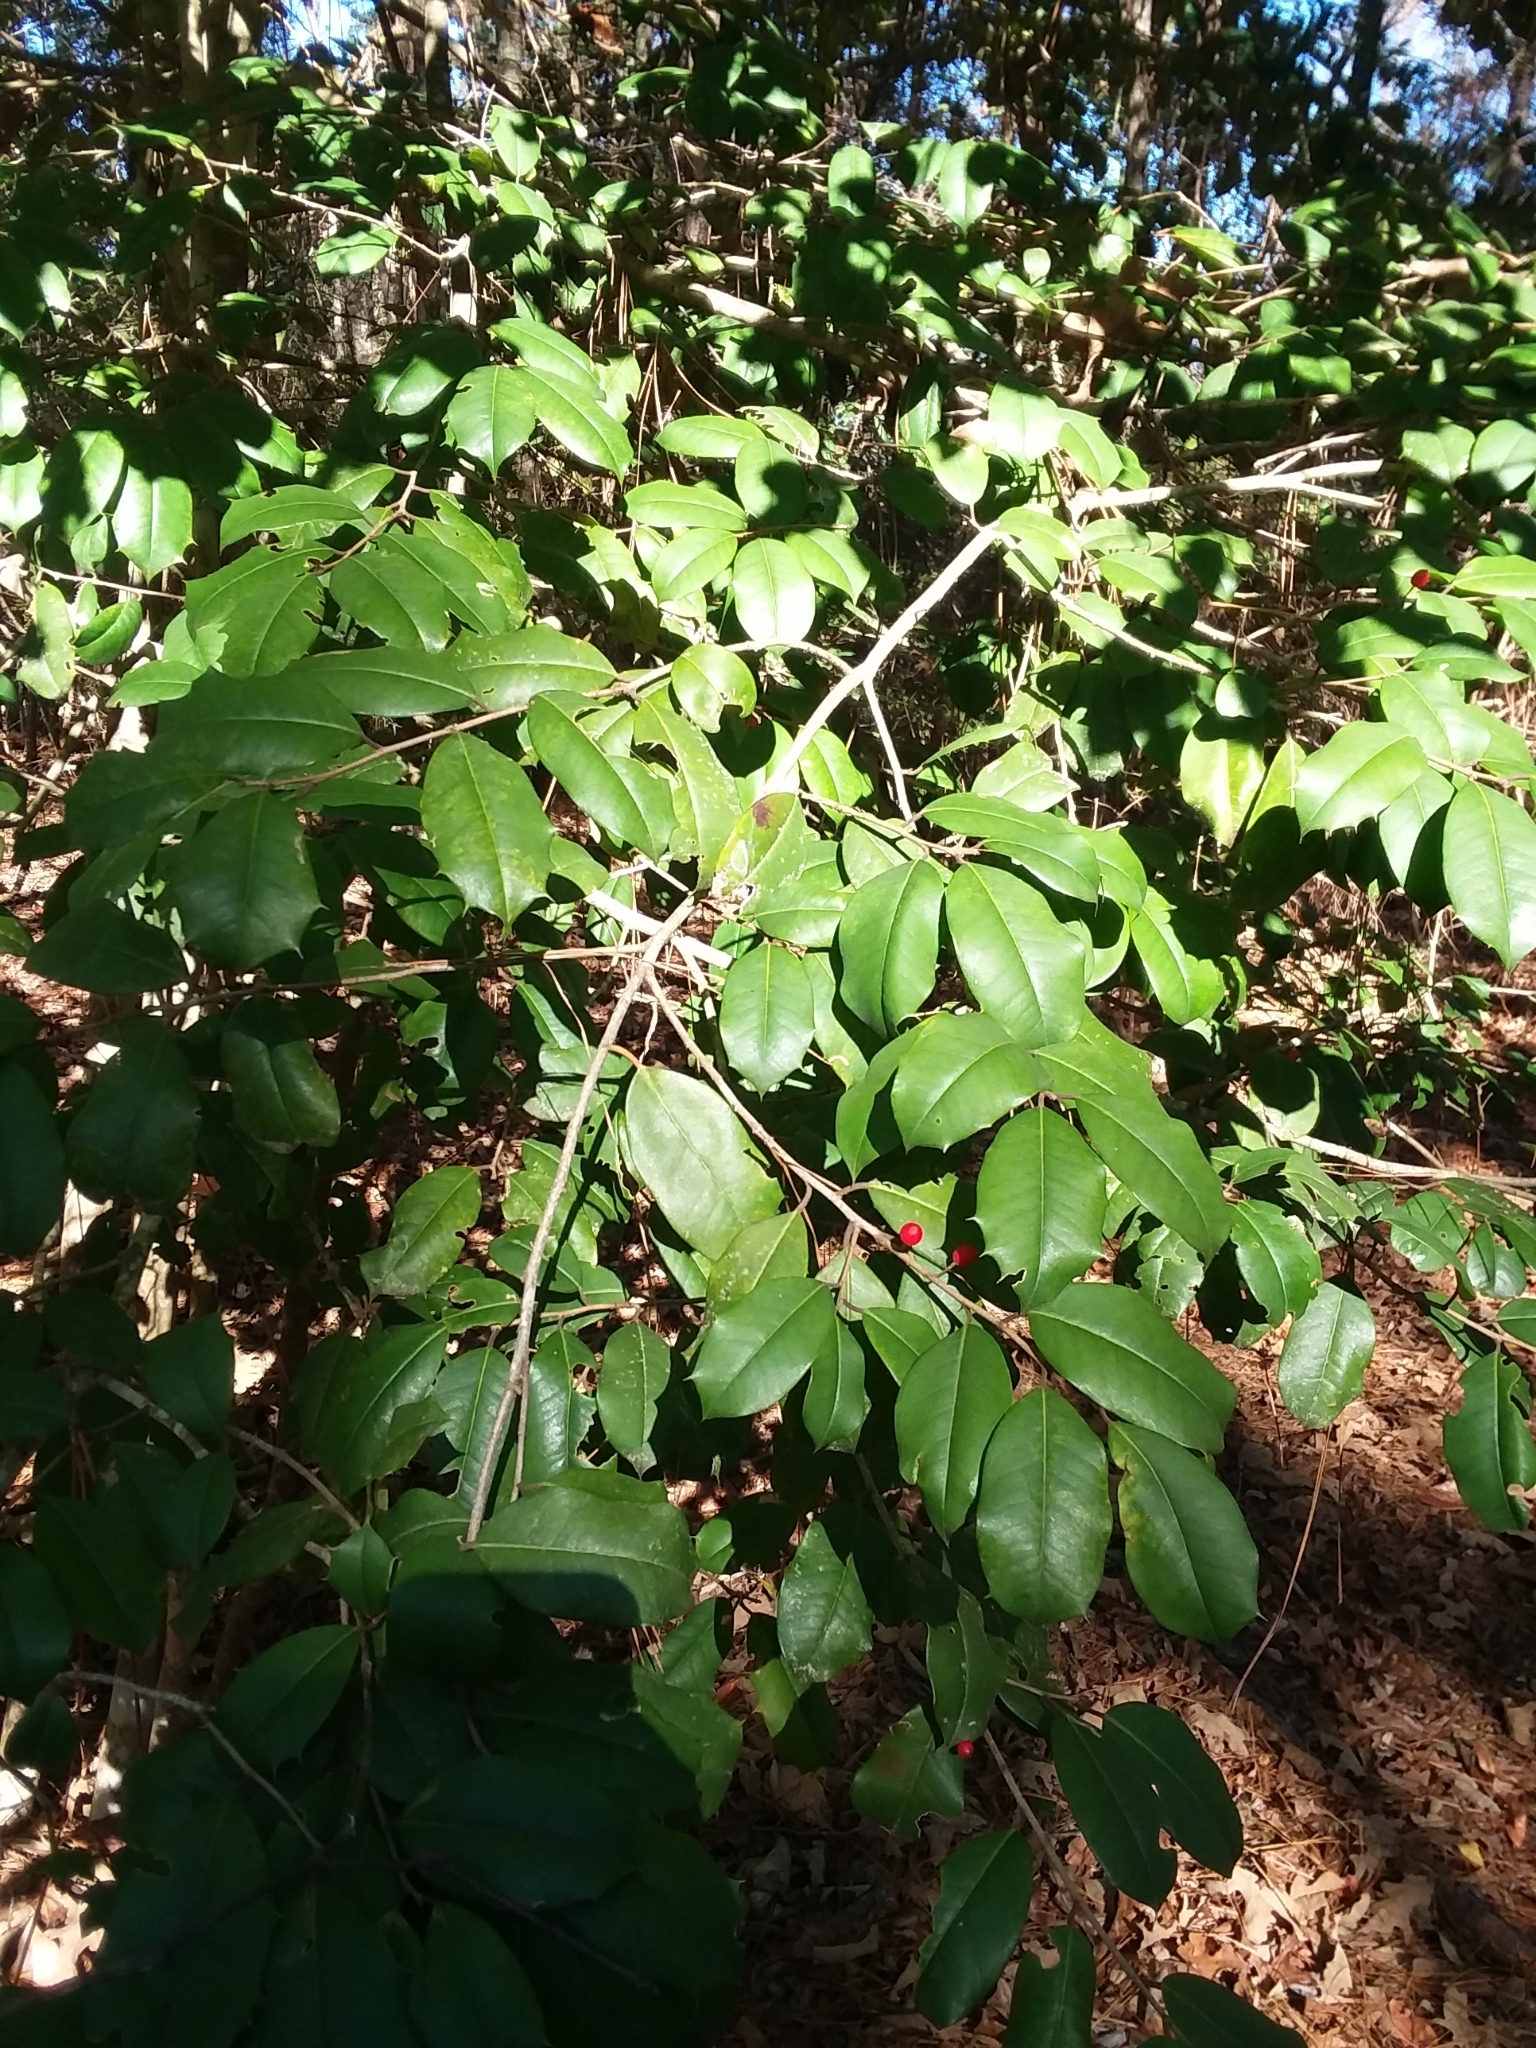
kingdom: Plantae
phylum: Tracheophyta
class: Magnoliopsida
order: Aquifoliales
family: Aquifoliaceae
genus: Ilex
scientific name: Ilex opaca
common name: American holly
